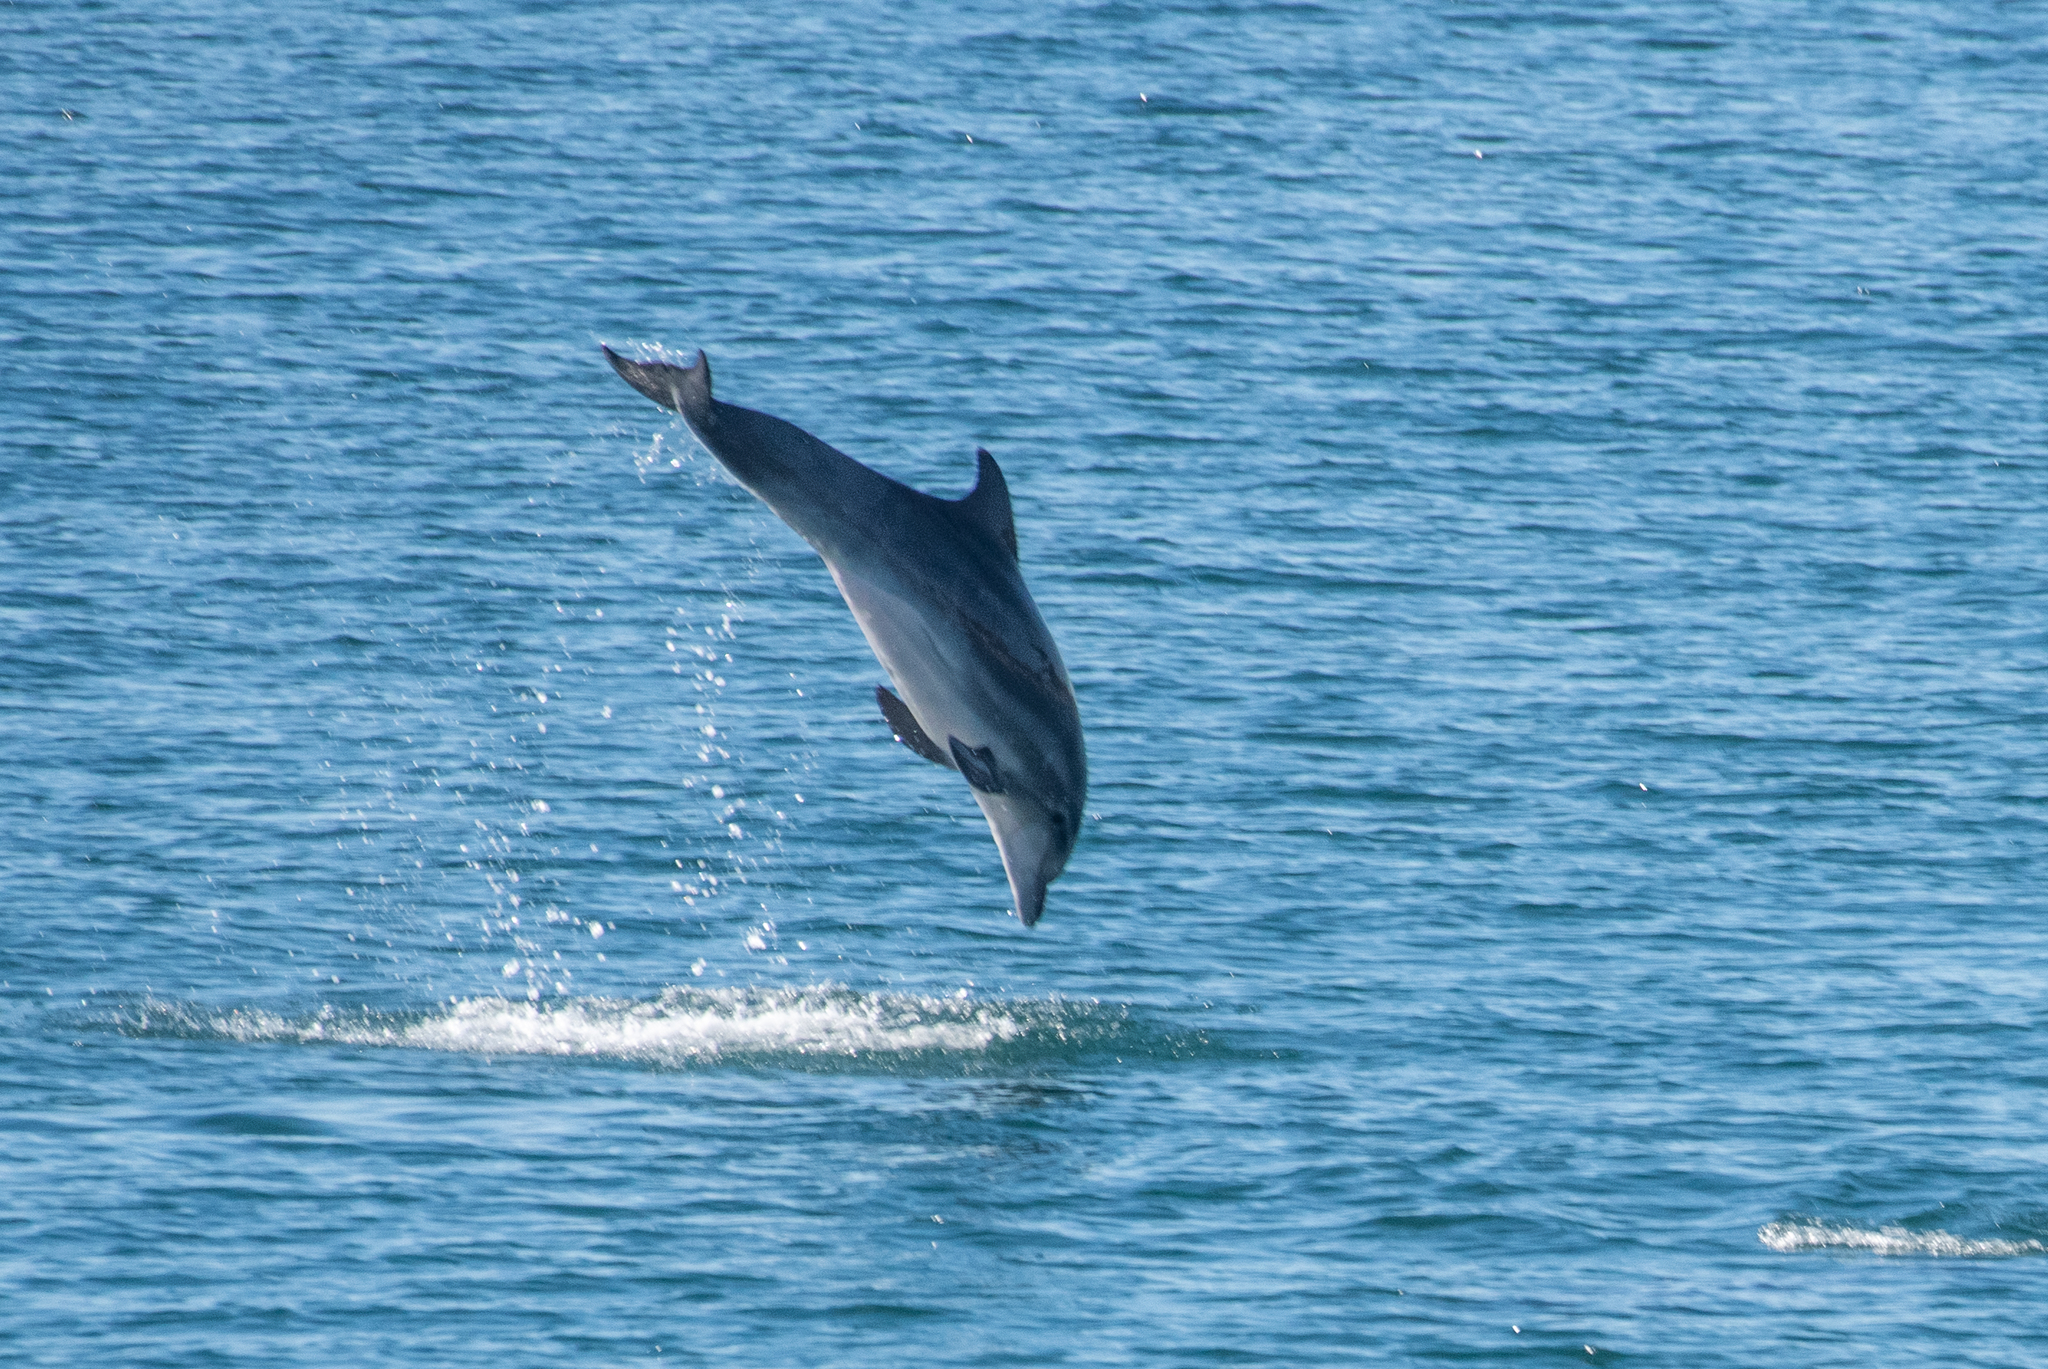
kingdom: Animalia
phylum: Chordata
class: Mammalia
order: Cetacea
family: Delphinidae
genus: Tursiops
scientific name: Tursiops truncatus
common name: Bottlenose dolphin
